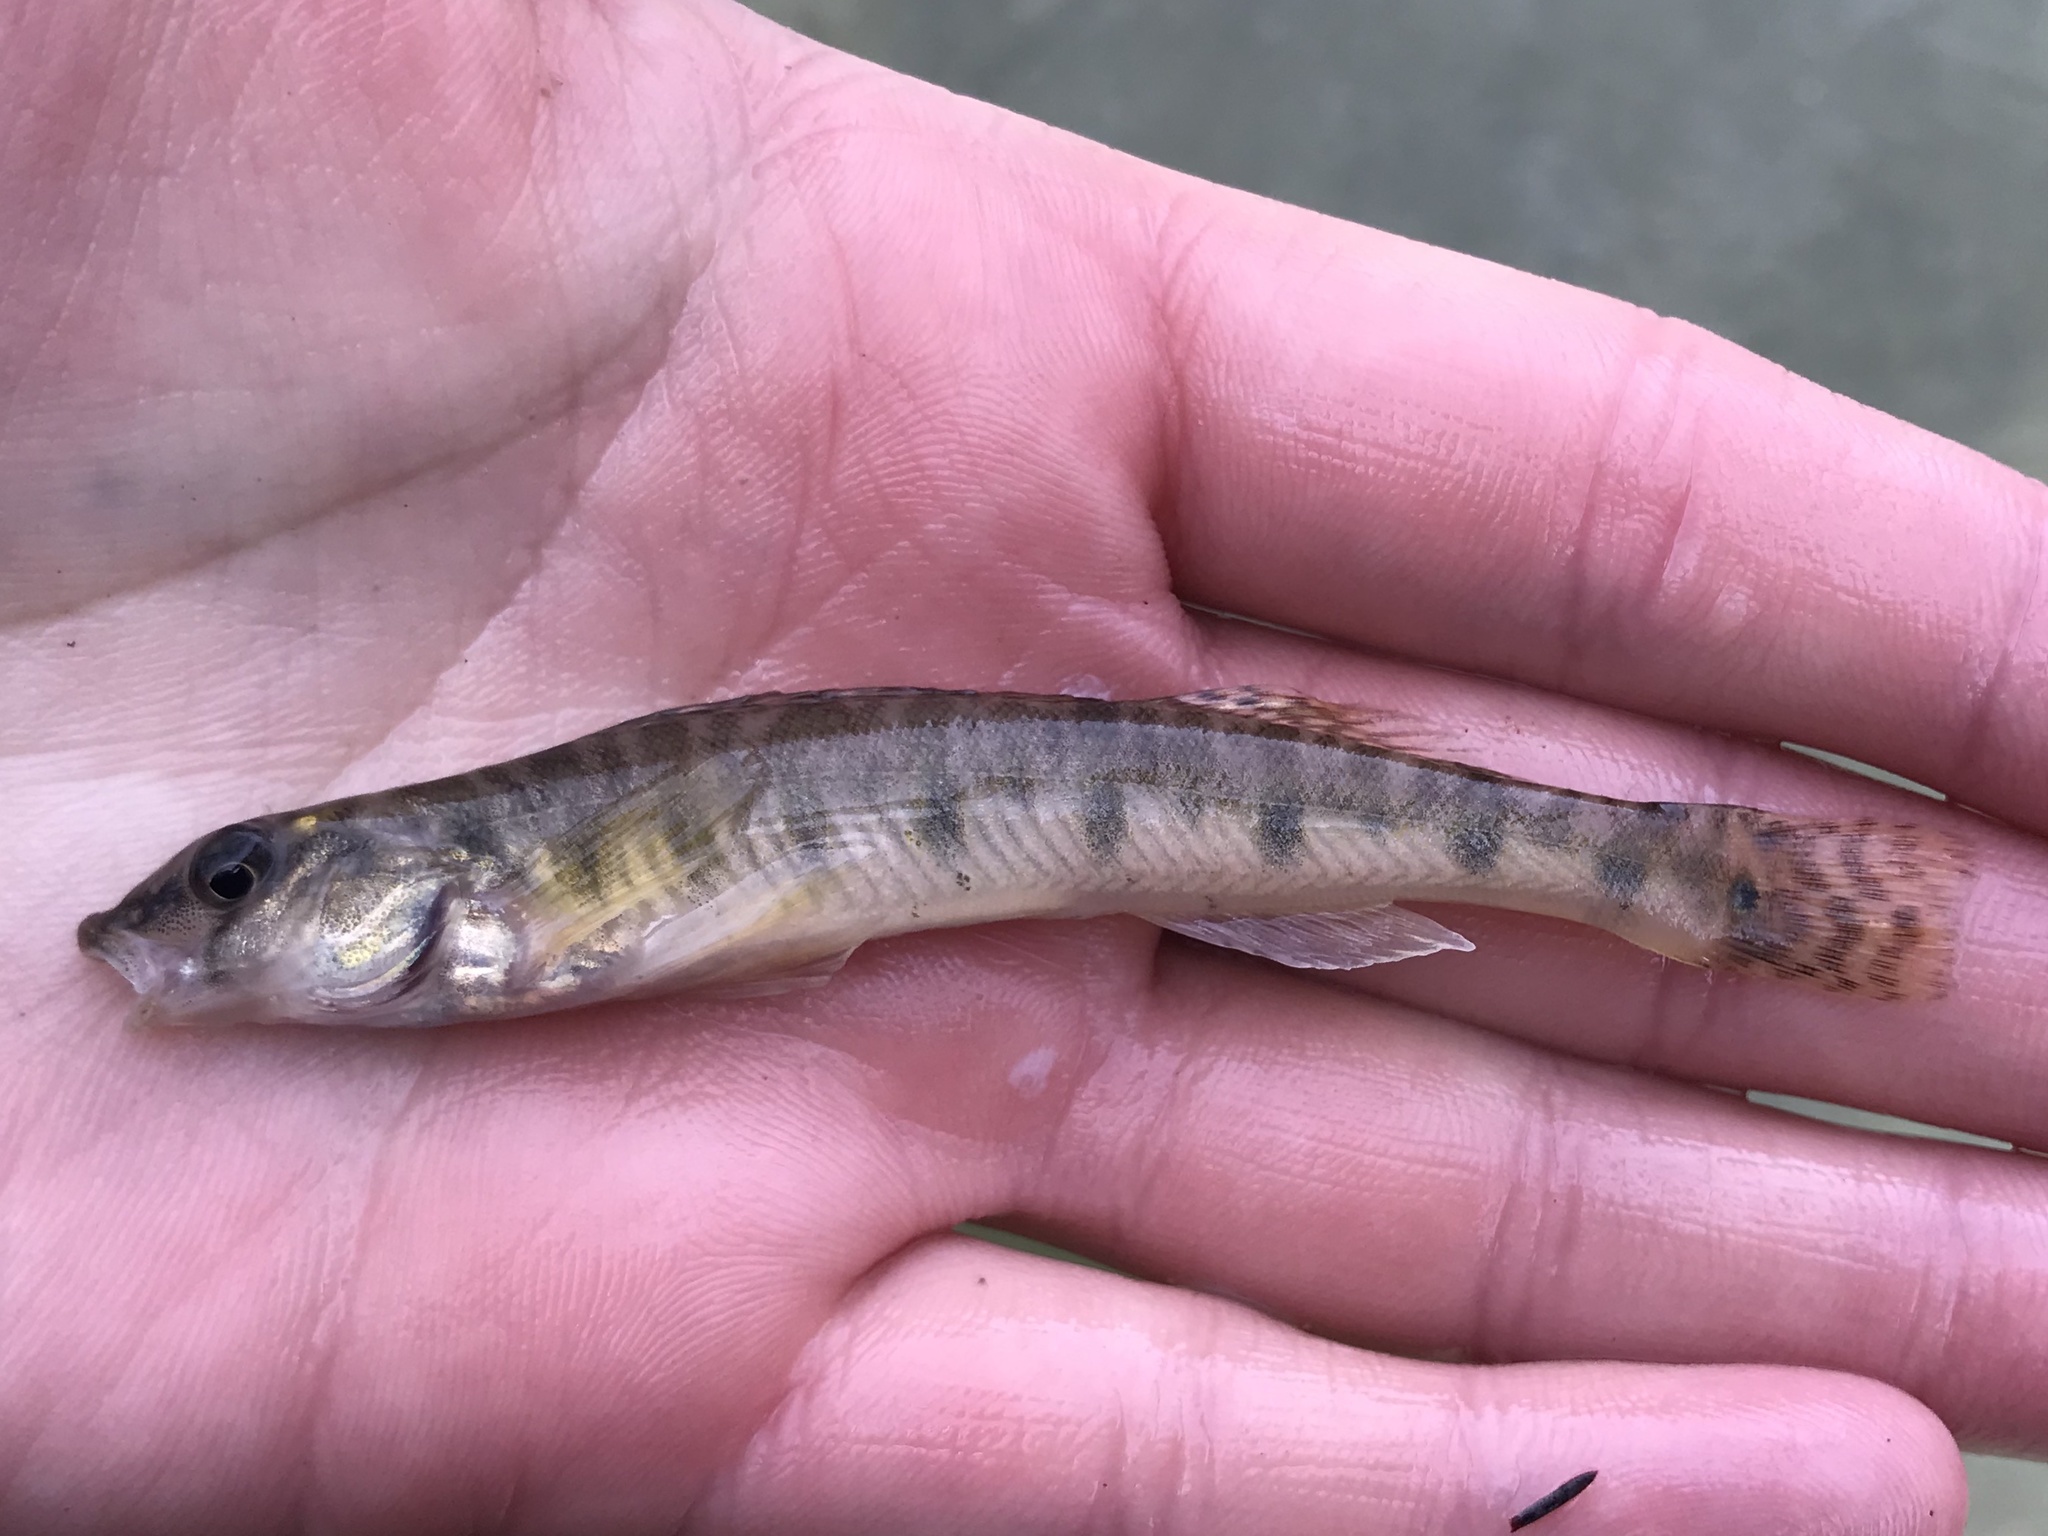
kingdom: Animalia
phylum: Chordata
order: Perciformes
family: Percidae
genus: Percina
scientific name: Percina carbonaria
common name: Texas logperch
